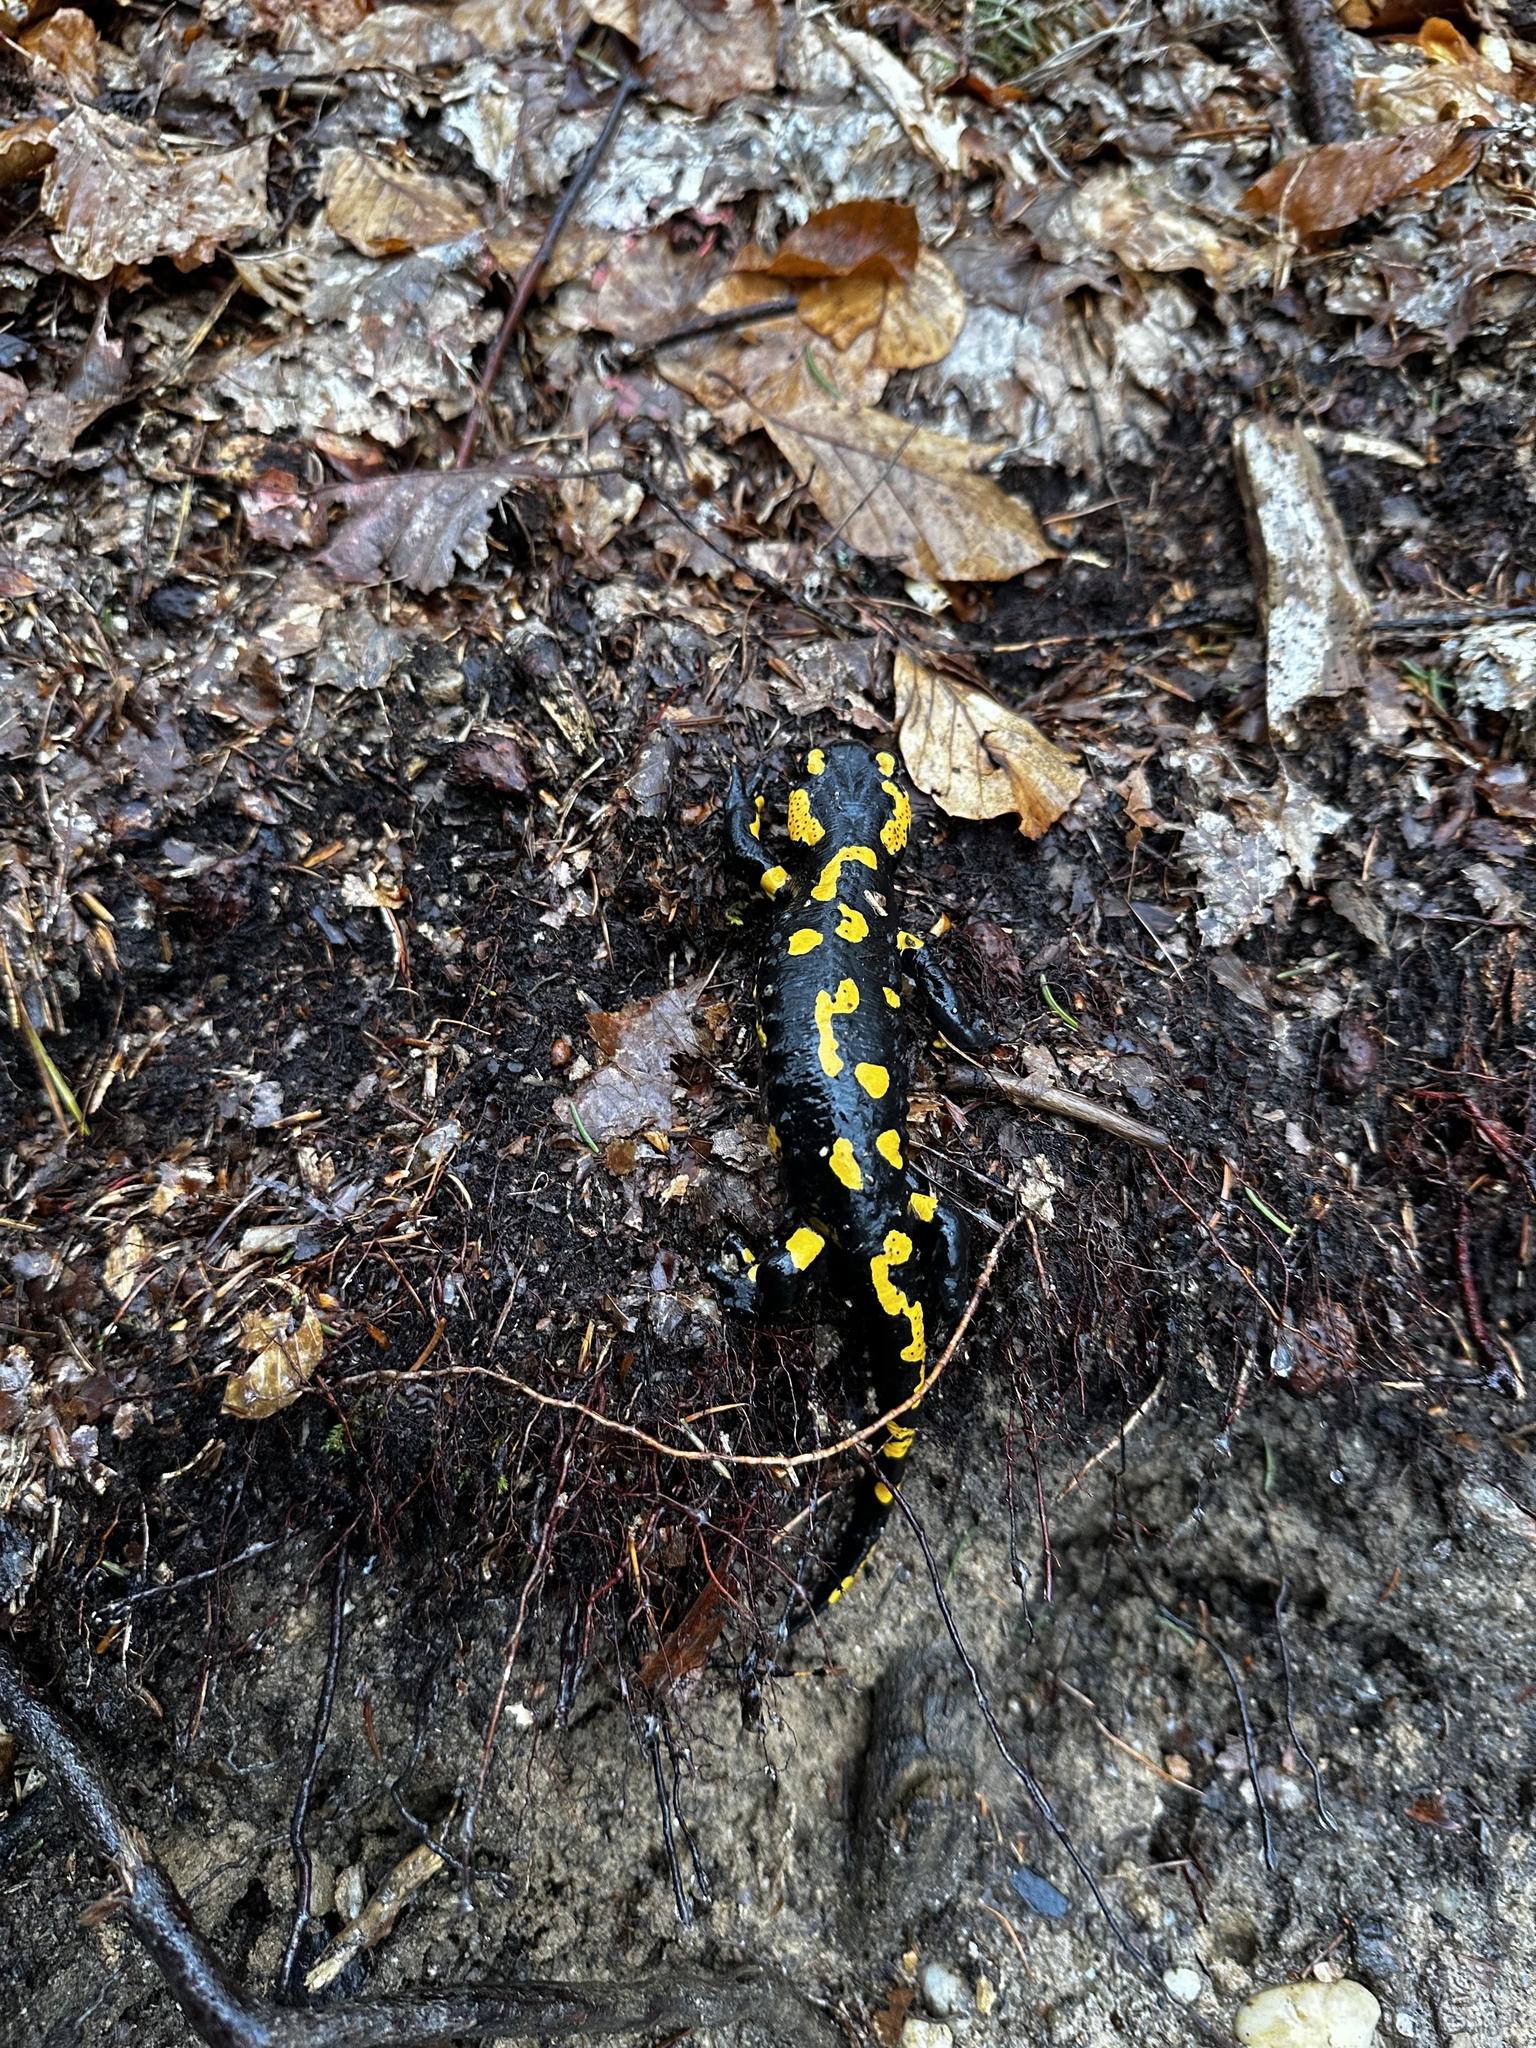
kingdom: Animalia
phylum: Chordata
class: Amphibia
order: Caudata
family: Salamandridae
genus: Salamandra
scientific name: Salamandra salamandra
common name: Fire salamander
